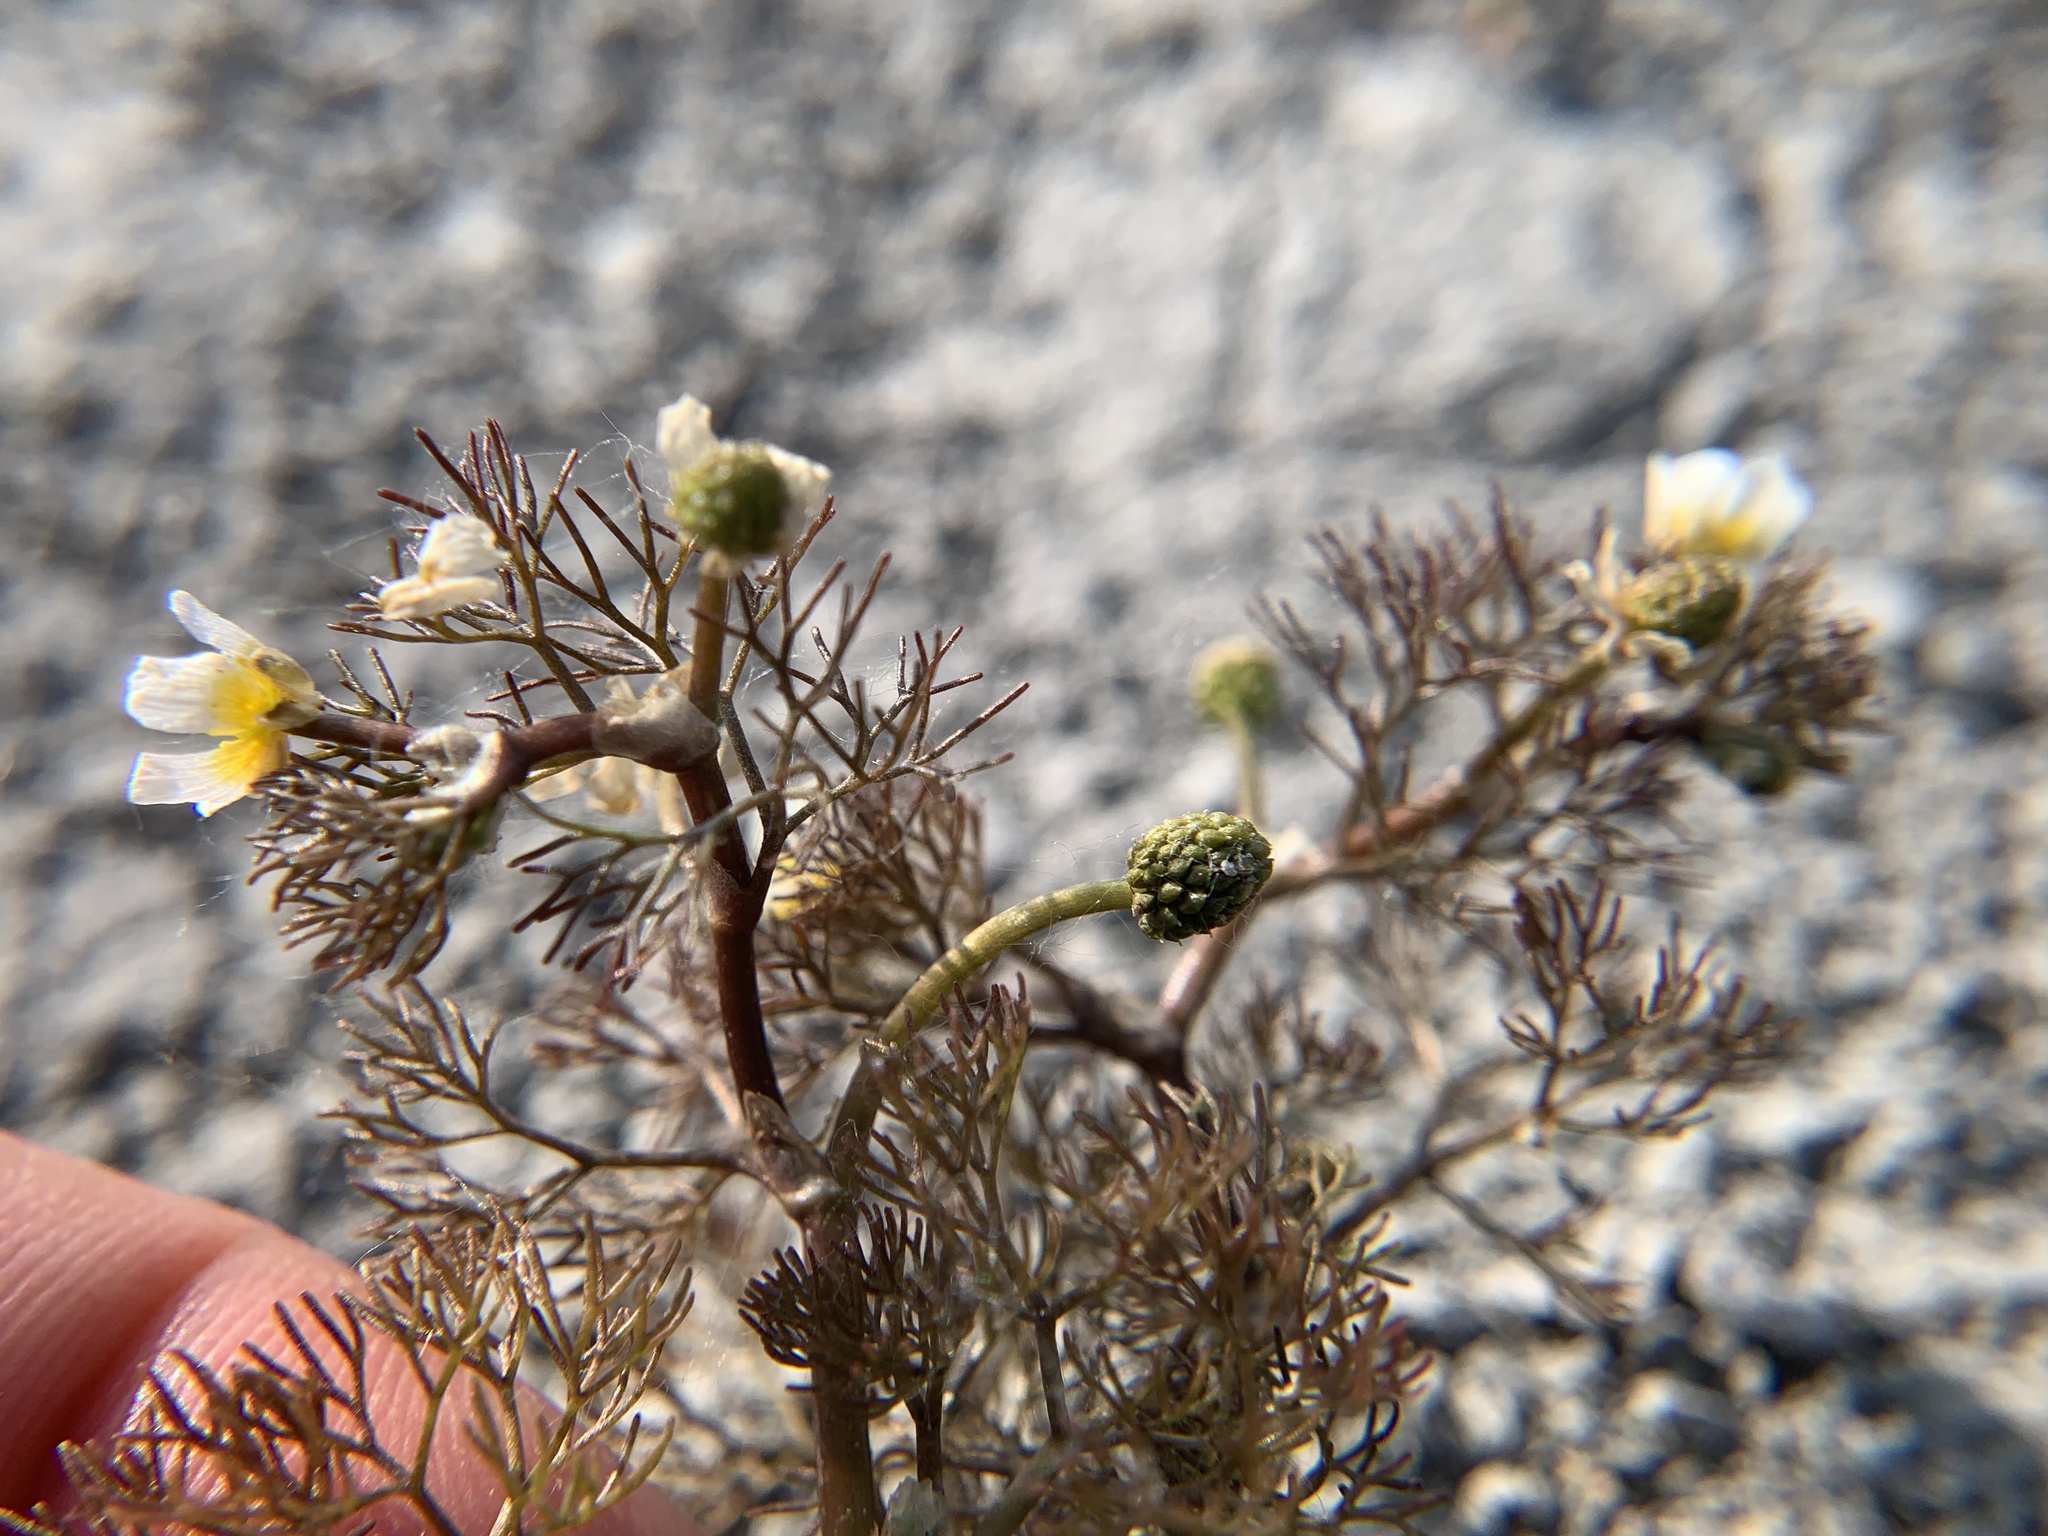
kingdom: Plantae
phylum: Tracheophyta
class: Magnoliopsida
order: Ranunculales
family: Ranunculaceae
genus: Ranunculus
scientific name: Ranunculus rionii
